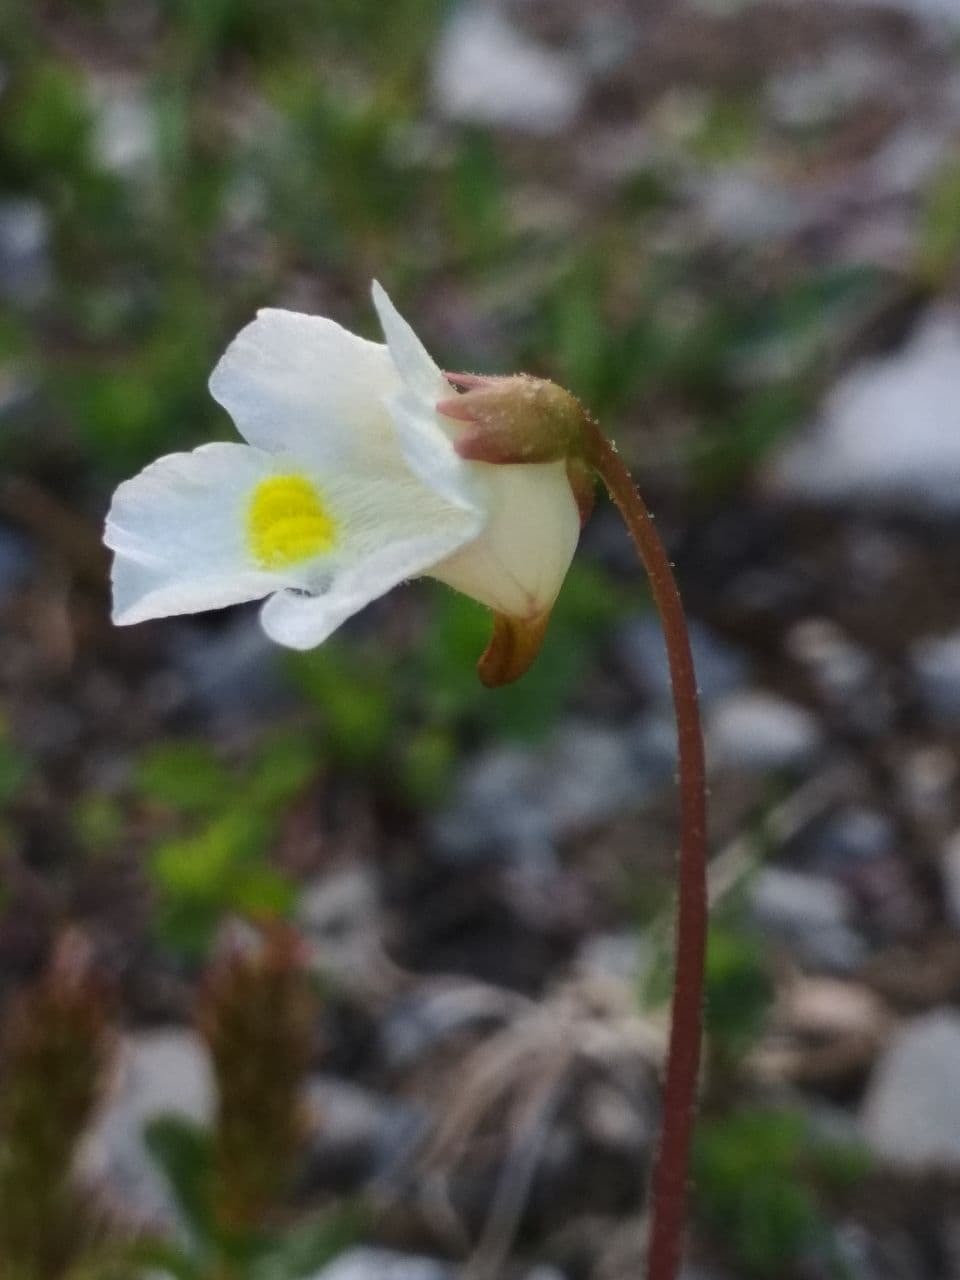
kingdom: Plantae
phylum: Tracheophyta
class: Magnoliopsida
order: Lamiales
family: Lentibulariaceae
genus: Pinguicula
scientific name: Pinguicula alpina
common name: Alpine butterwort
